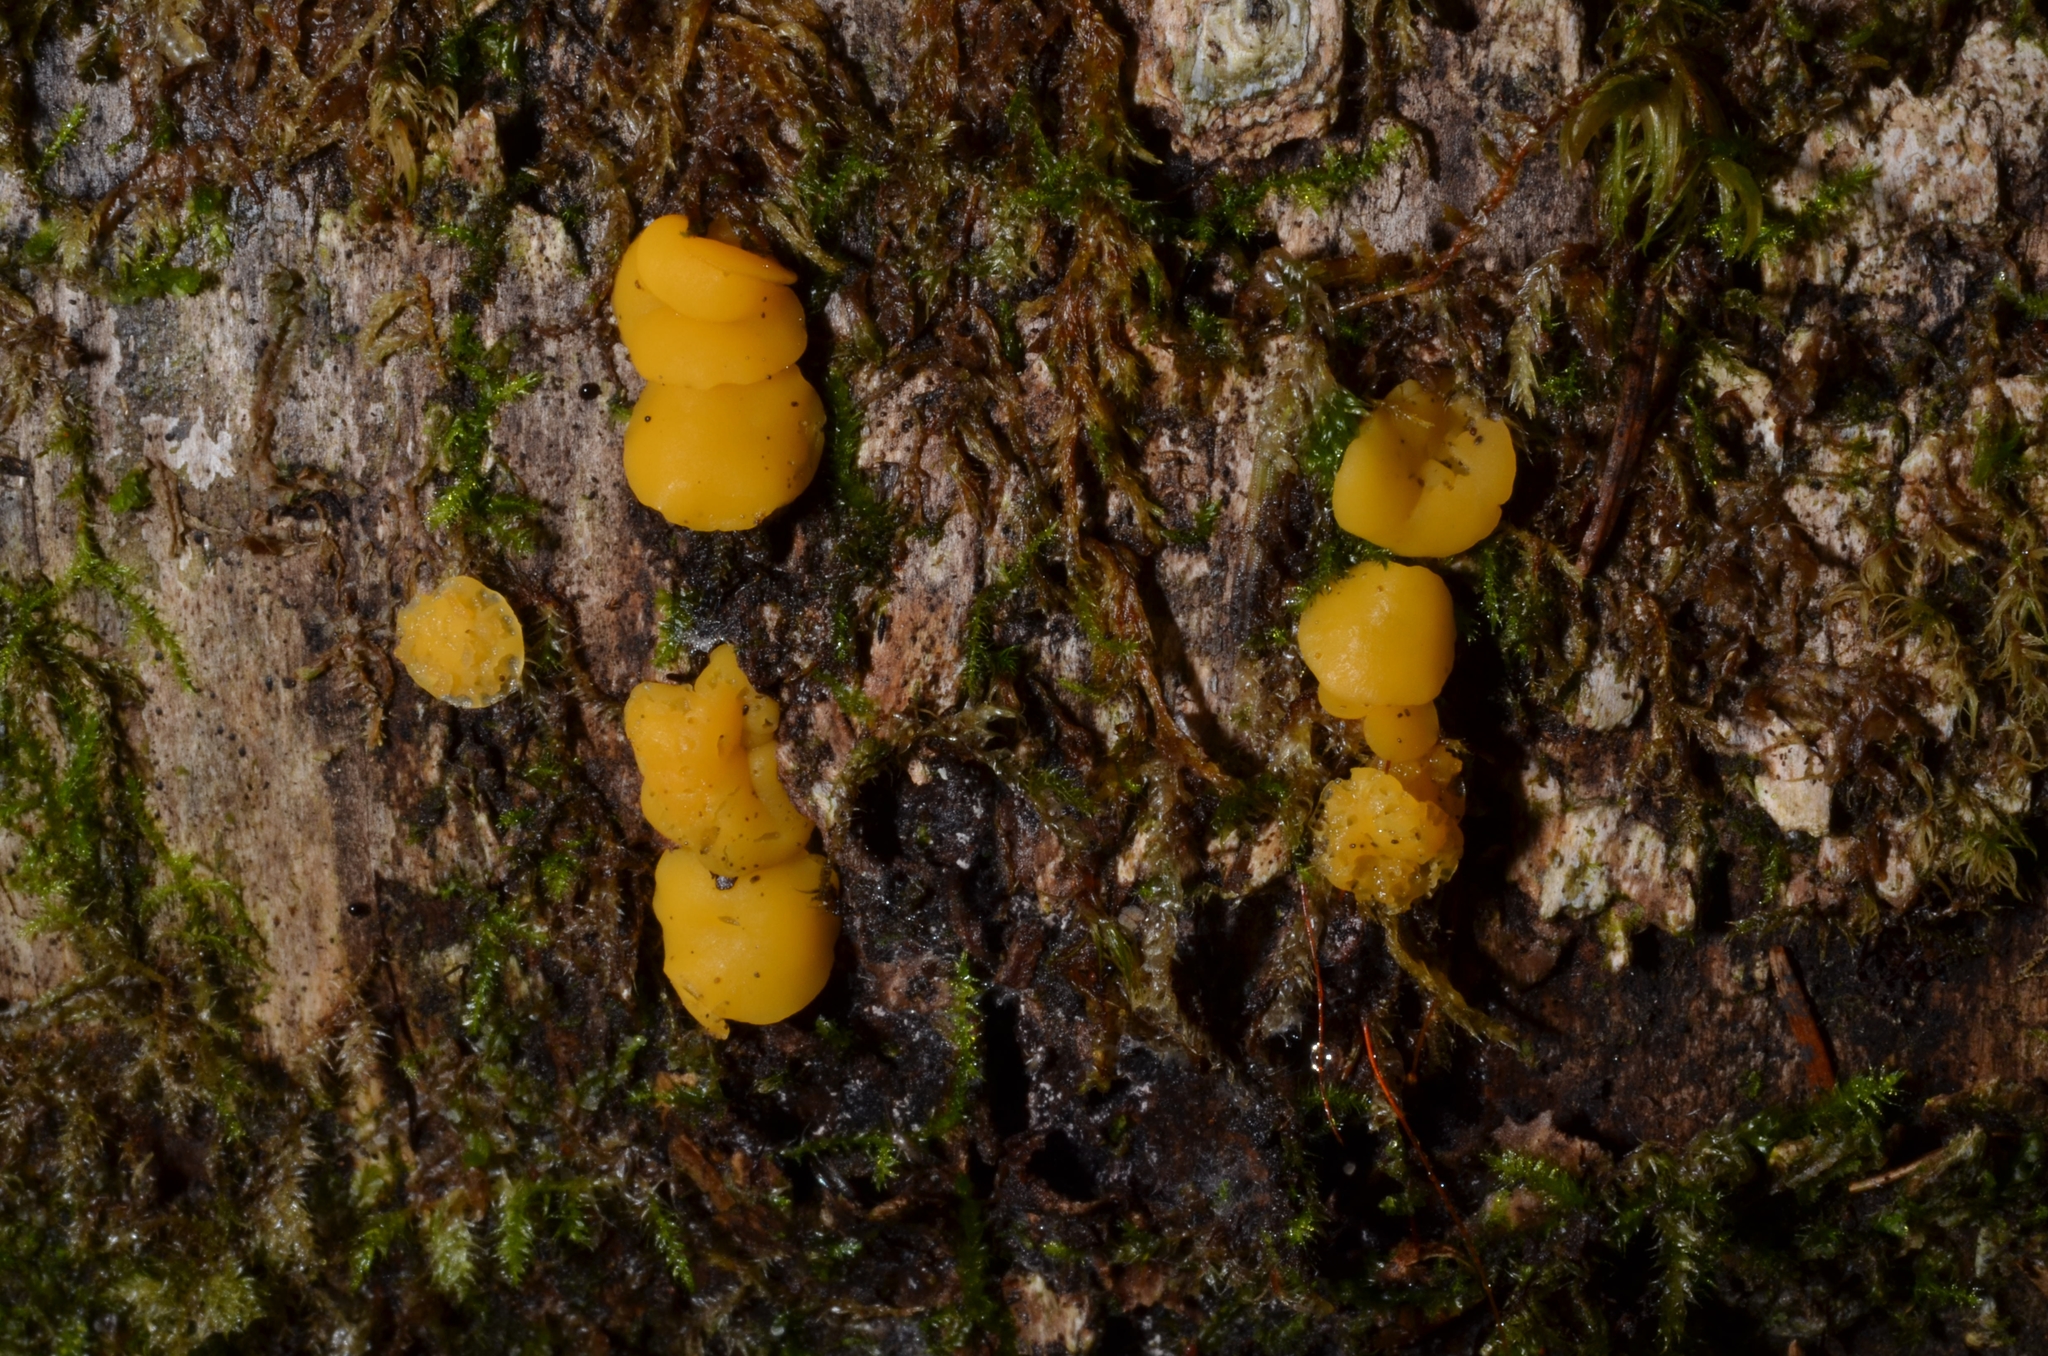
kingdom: Fungi
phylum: Ascomycota
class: Leotiomycetes
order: Helotiales
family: Helotiaceae
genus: Hymenoscyphus
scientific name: Hymenoscyphus monticola
